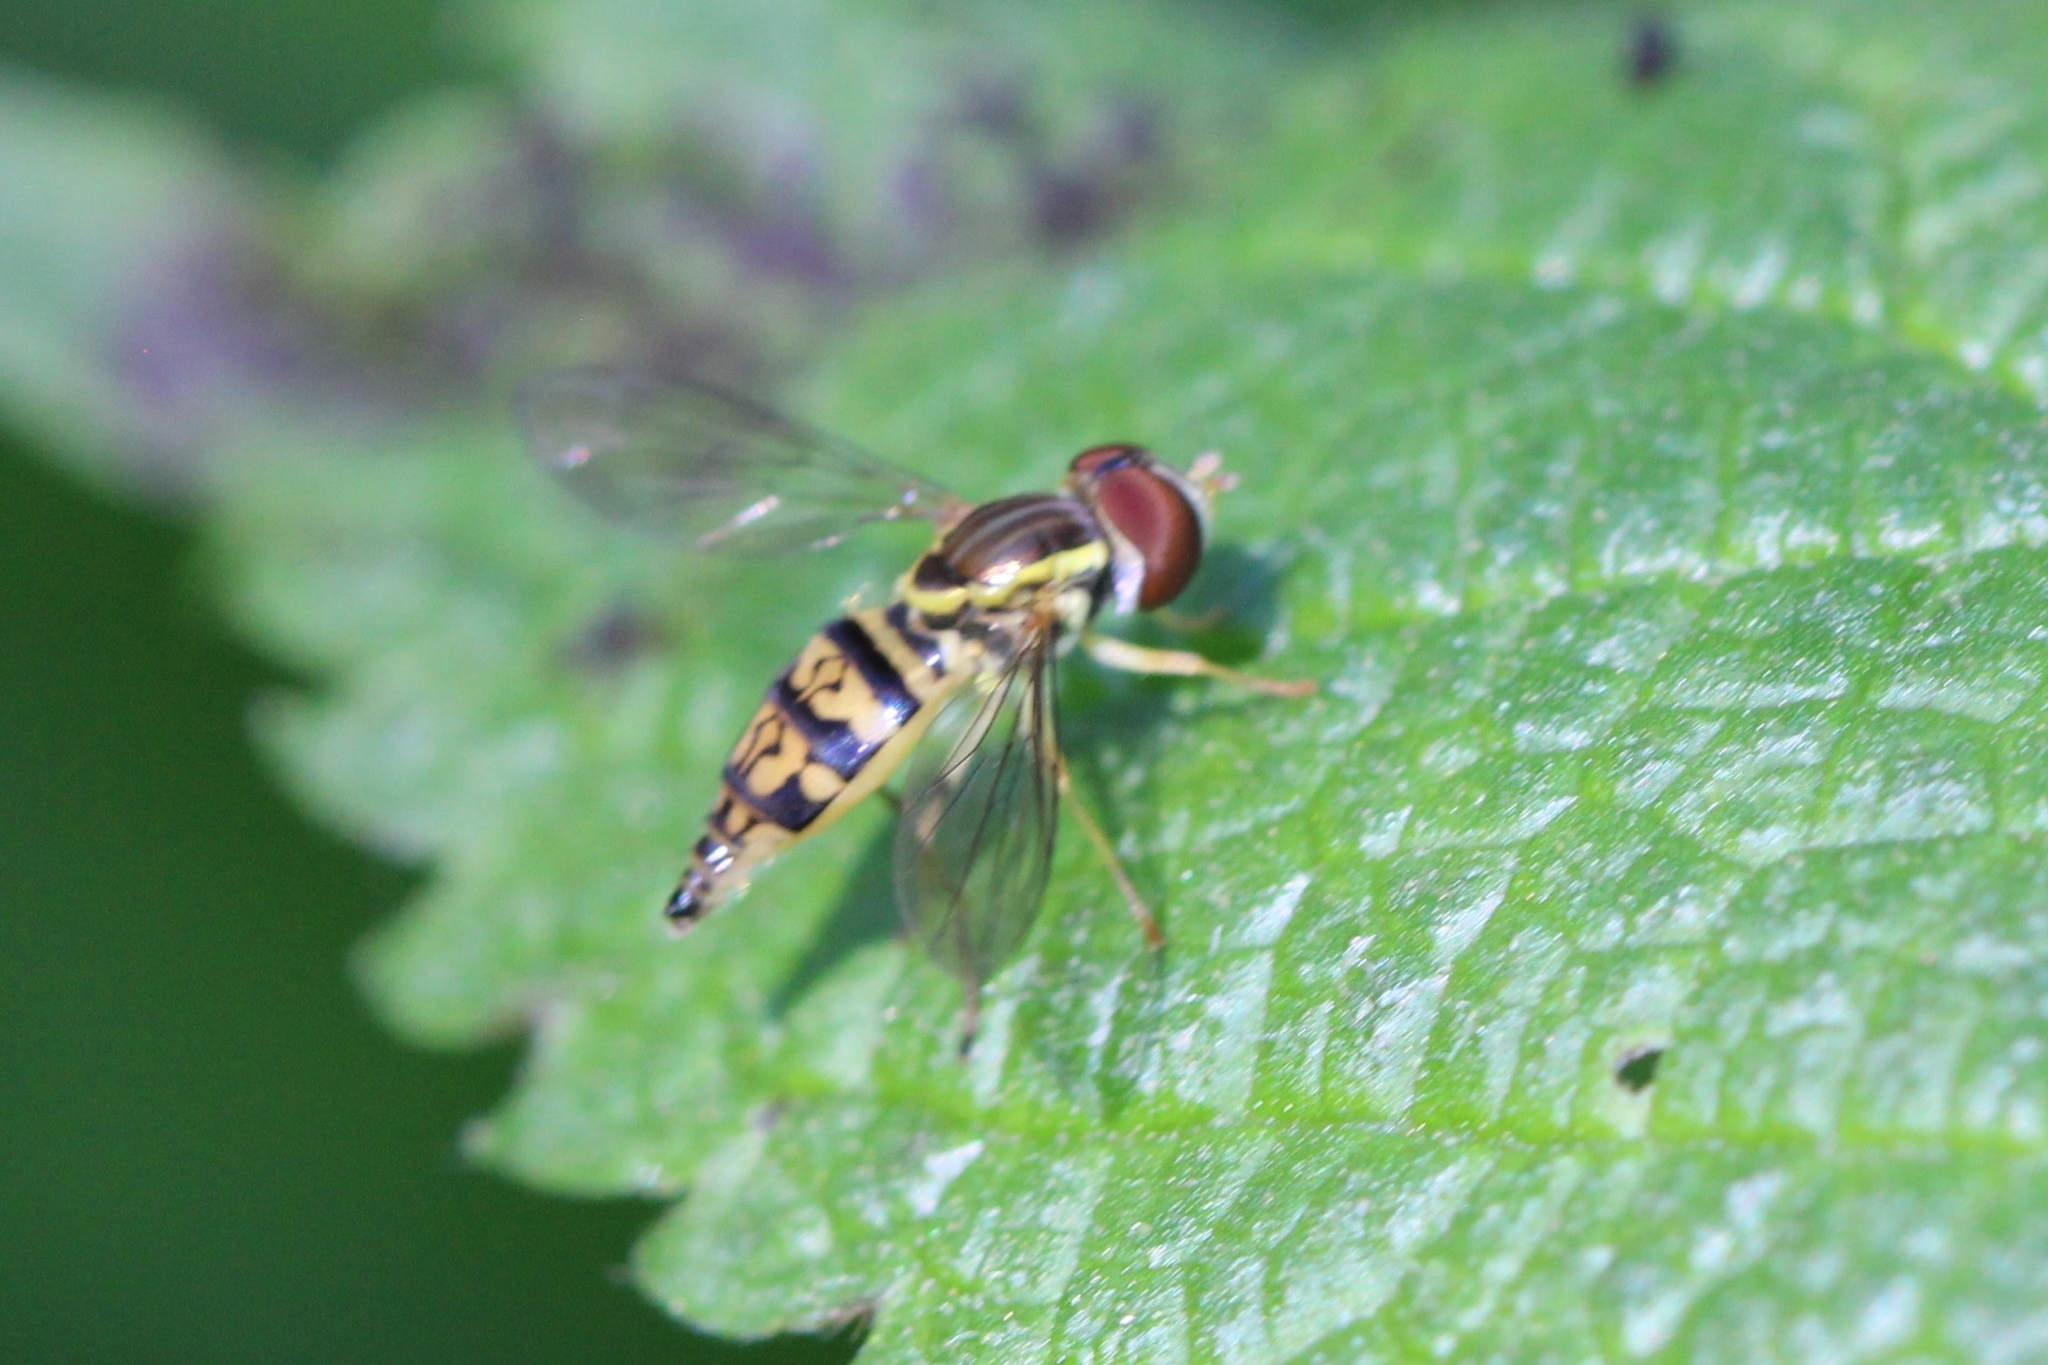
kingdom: Animalia
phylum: Arthropoda
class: Insecta
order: Diptera
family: Syrphidae
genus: Toxomerus
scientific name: Toxomerus geminatus
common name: Eastern calligrapher
